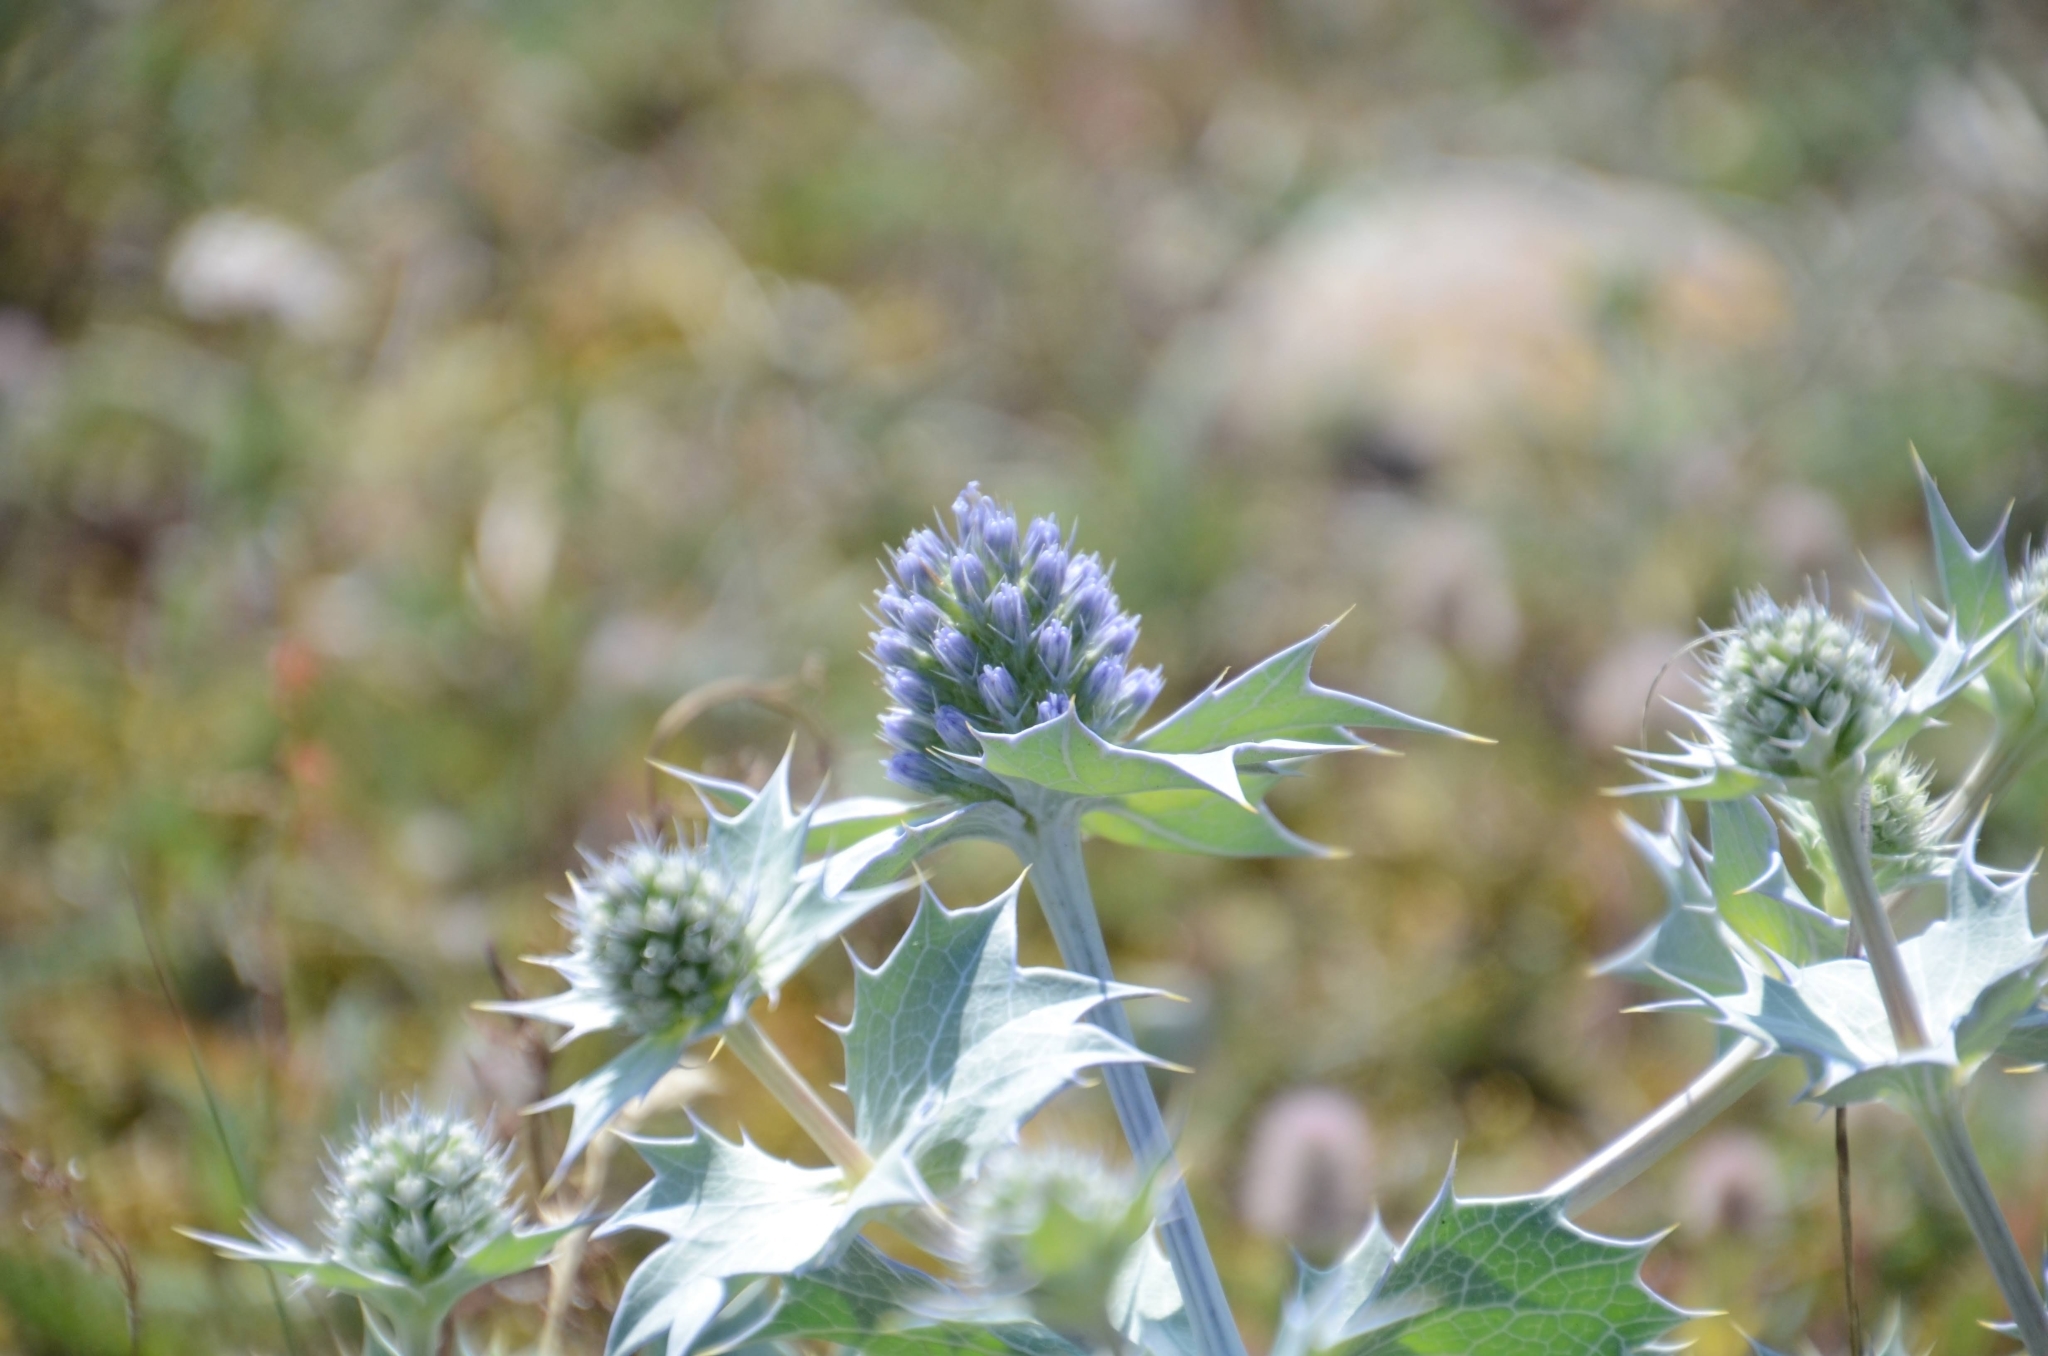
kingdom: Plantae
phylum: Tracheophyta
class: Magnoliopsida
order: Apiales
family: Apiaceae
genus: Eryngium
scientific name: Eryngium maritimum
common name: Sea-holly
